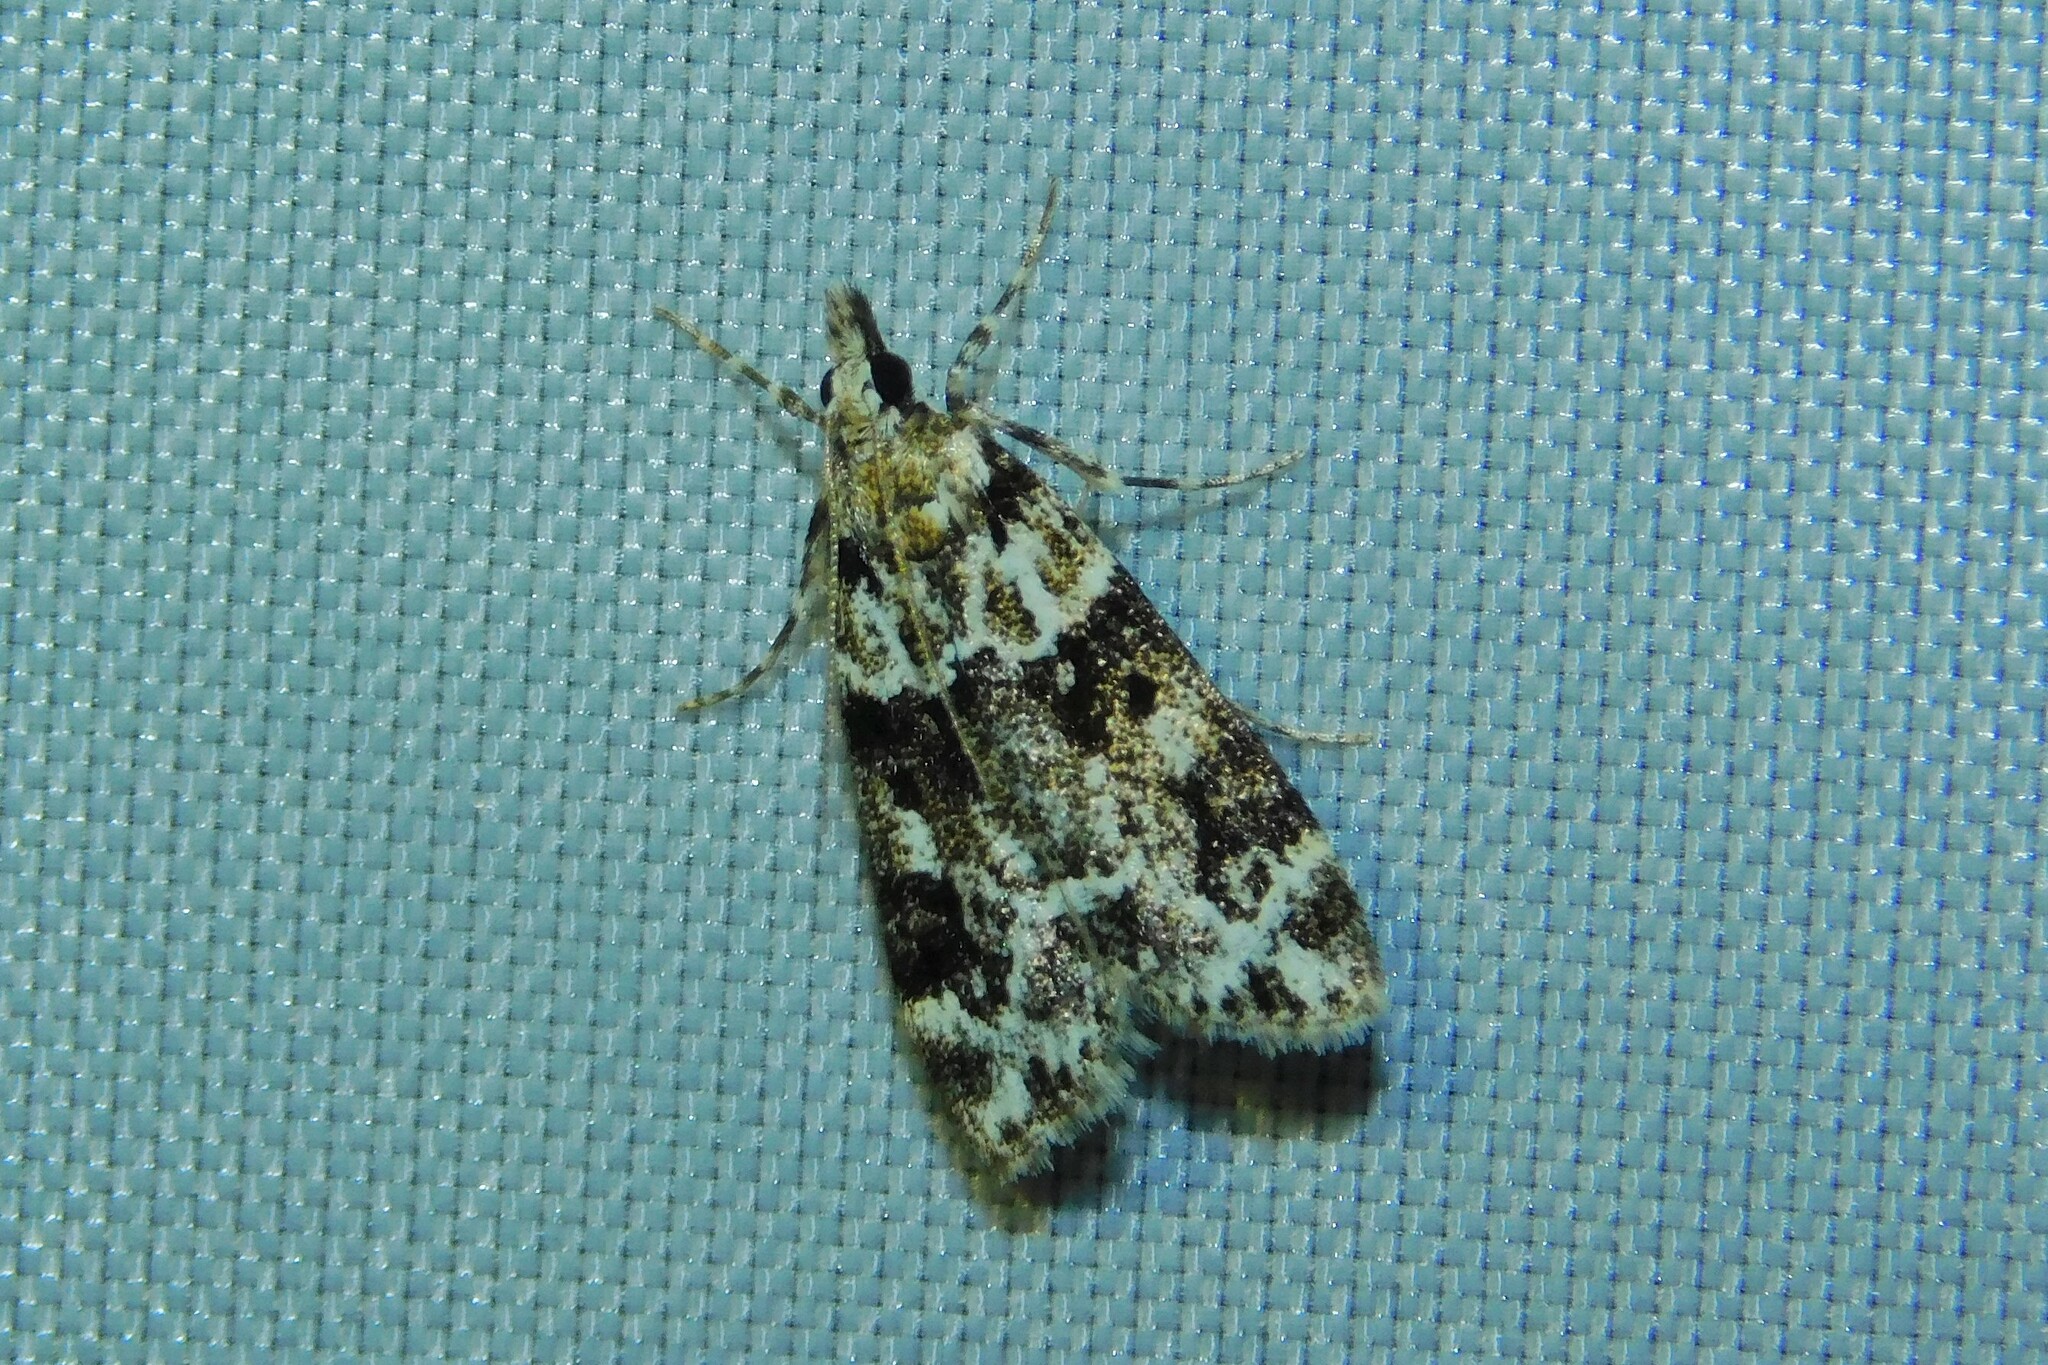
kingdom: Animalia
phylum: Arthropoda
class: Insecta
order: Lepidoptera
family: Crambidae
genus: Eudonia
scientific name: Eudonia delunella
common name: Pied grey
